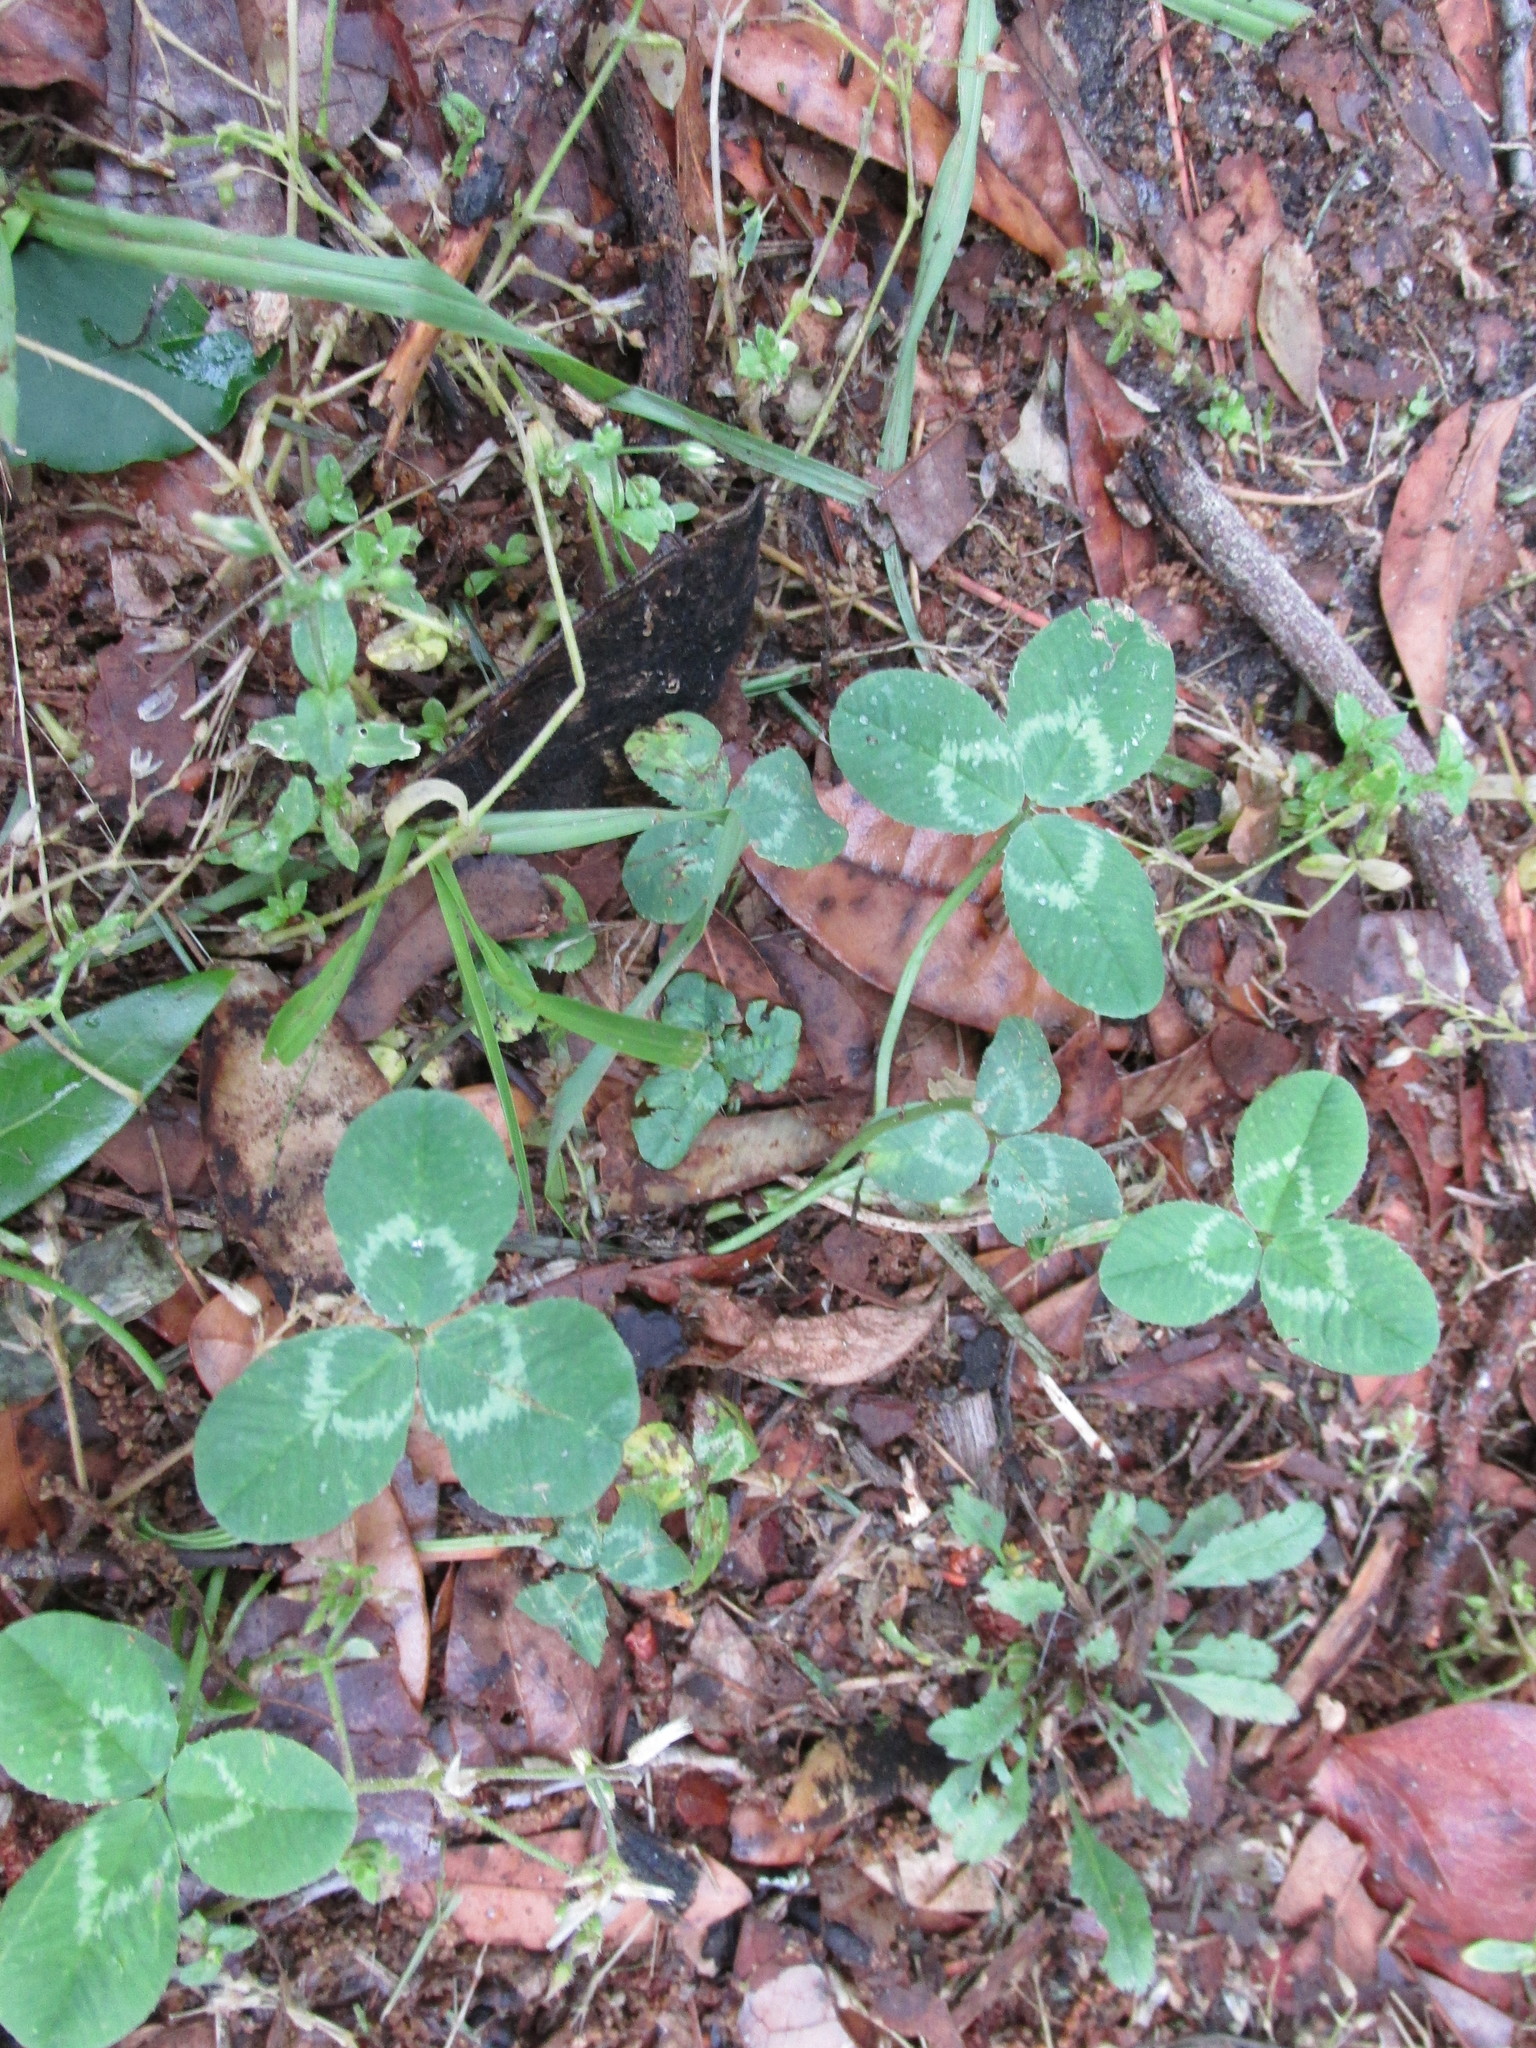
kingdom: Plantae
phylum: Tracheophyta
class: Magnoliopsida
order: Fabales
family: Fabaceae
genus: Trifolium
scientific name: Trifolium repens
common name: White clover
